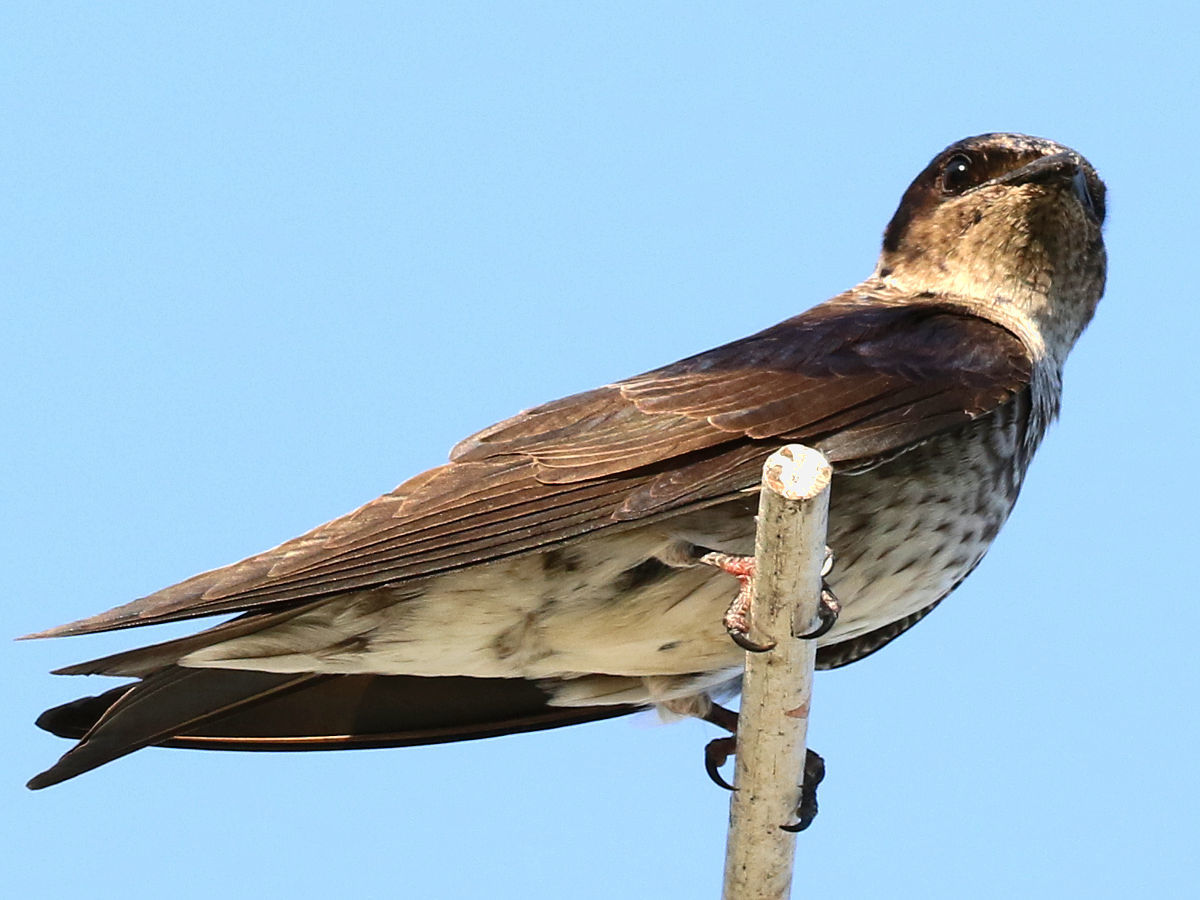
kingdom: Animalia
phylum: Chordata
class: Aves
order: Passeriformes
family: Hirundinidae
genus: Progne
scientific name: Progne subis
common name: Purple martin
